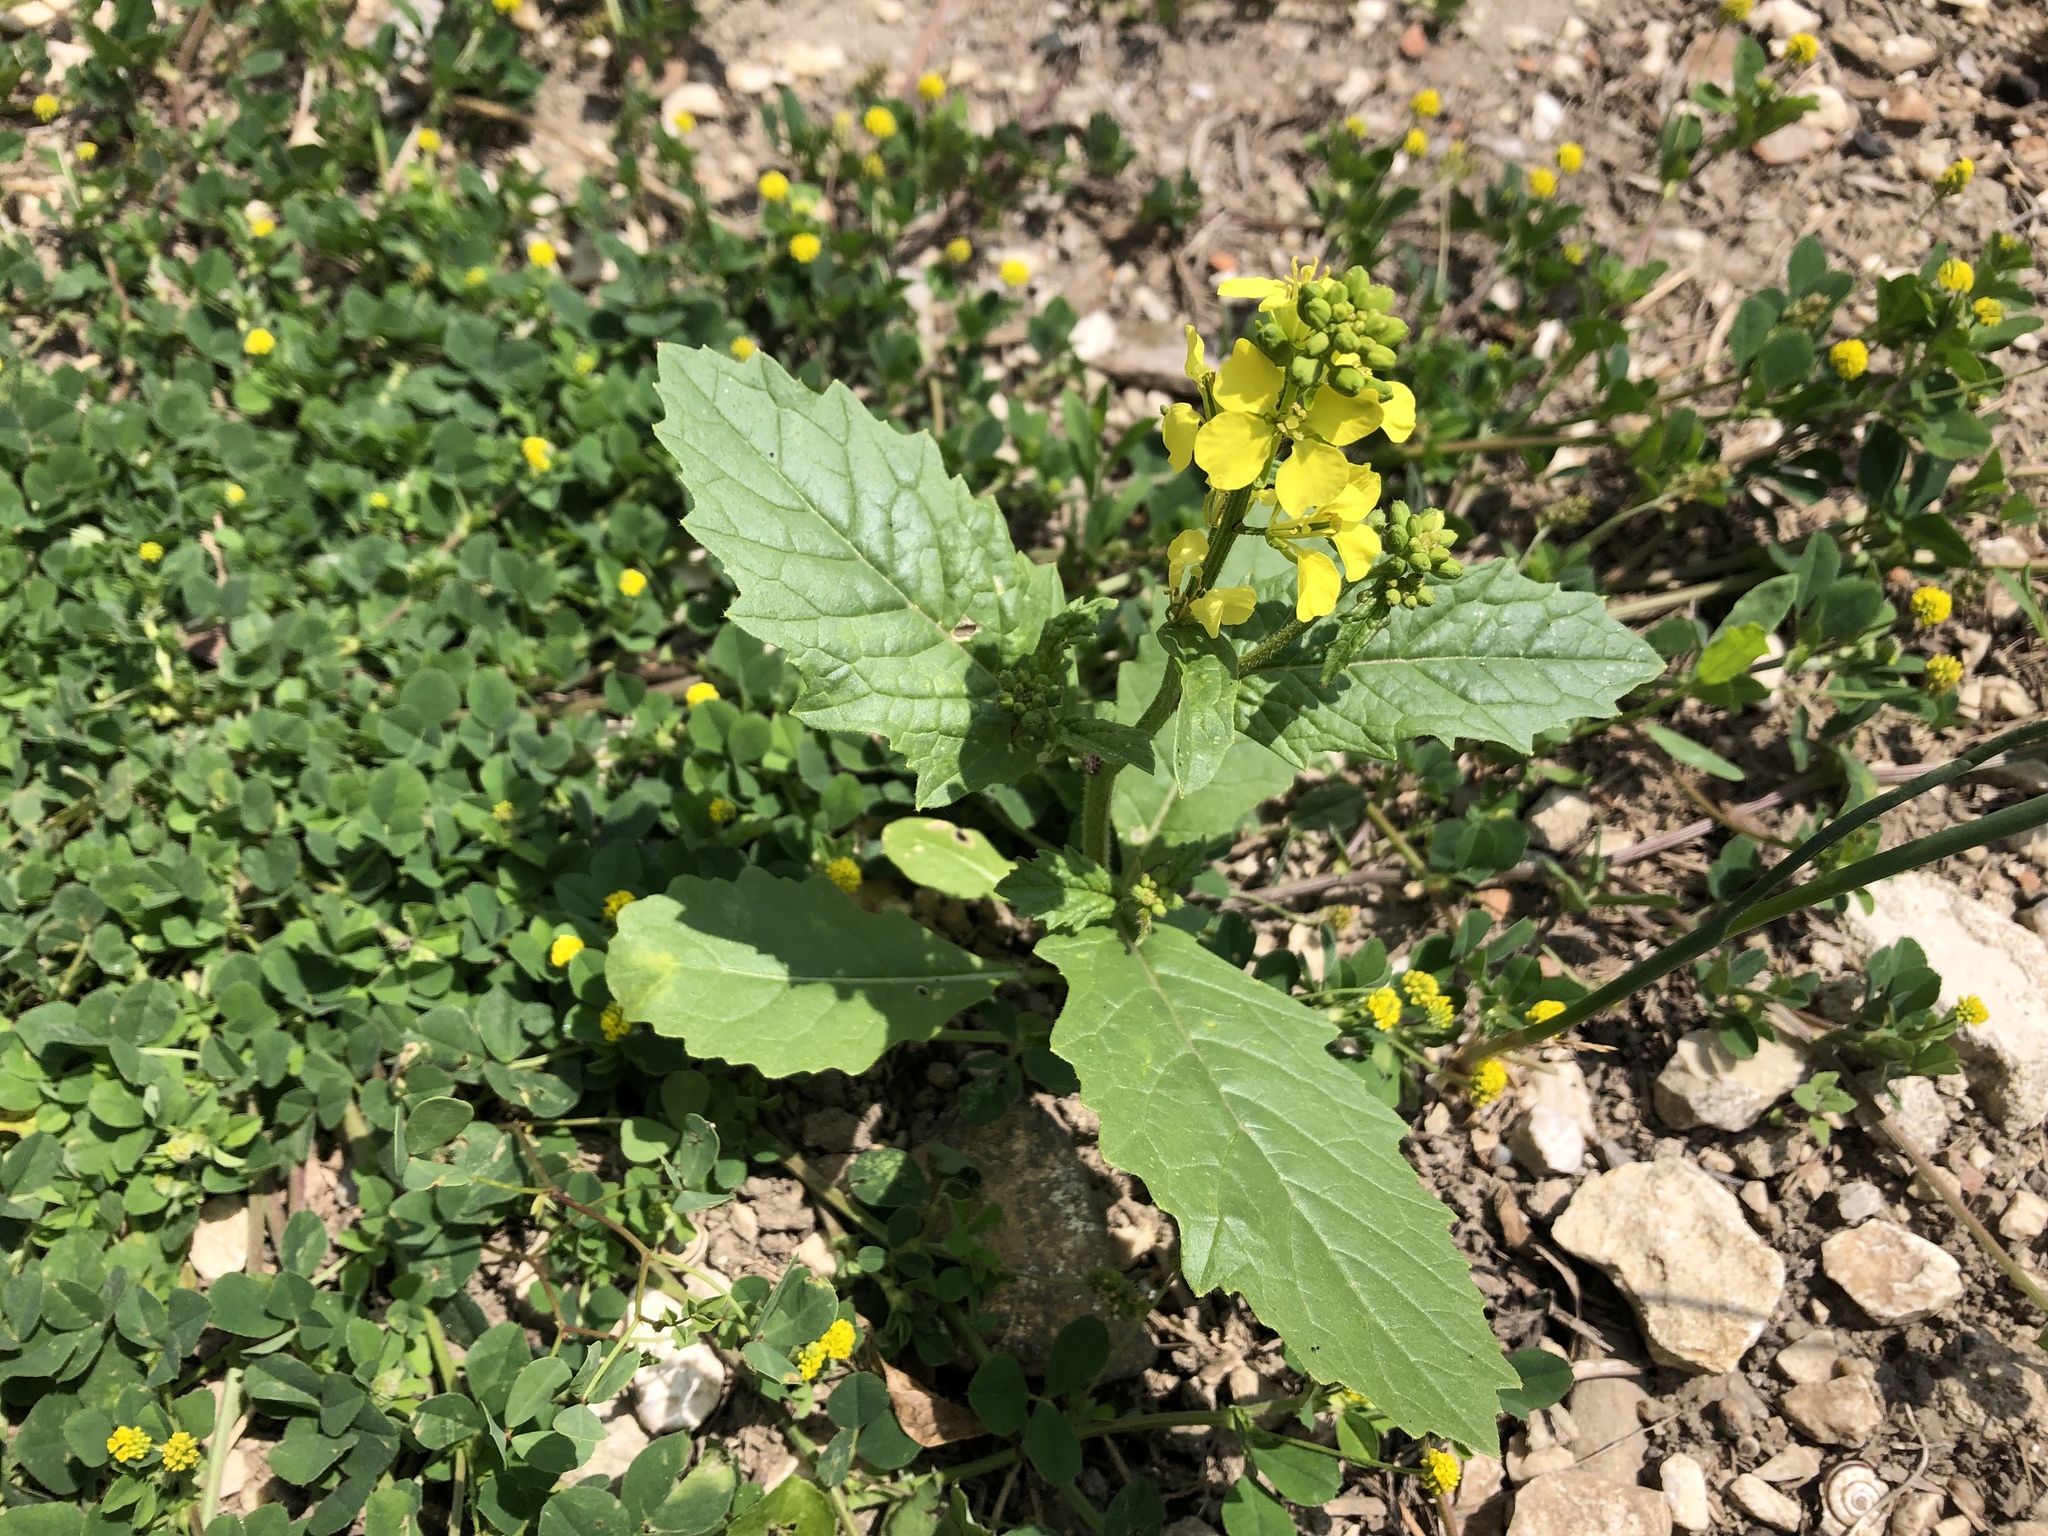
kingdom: Plantae
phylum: Tracheophyta
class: Magnoliopsida
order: Brassicales
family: Brassicaceae
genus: Sinapis
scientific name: Sinapis arvensis
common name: Charlock
